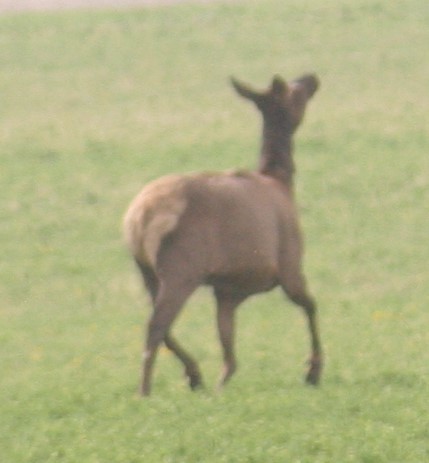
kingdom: Animalia
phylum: Chordata
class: Mammalia
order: Artiodactyla
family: Cervidae
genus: Cervus
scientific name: Cervus elaphus
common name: Red deer
